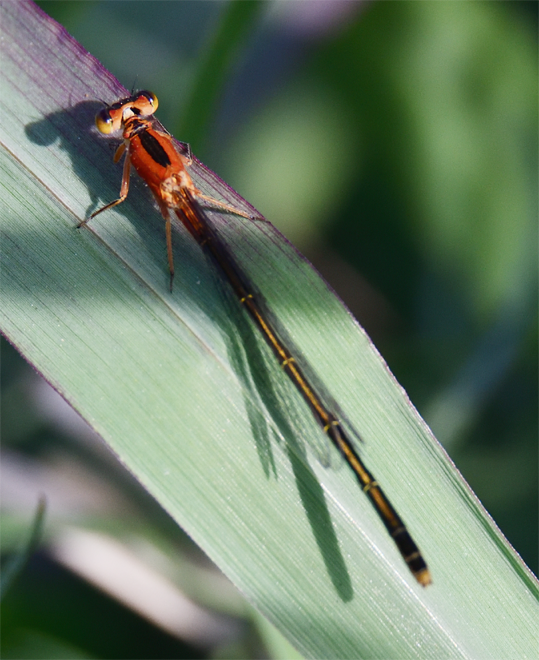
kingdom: Animalia
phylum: Arthropoda
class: Insecta
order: Odonata
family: Coenagrionidae
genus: Ischnura
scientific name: Ischnura ramburii
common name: Rambur's forktail
